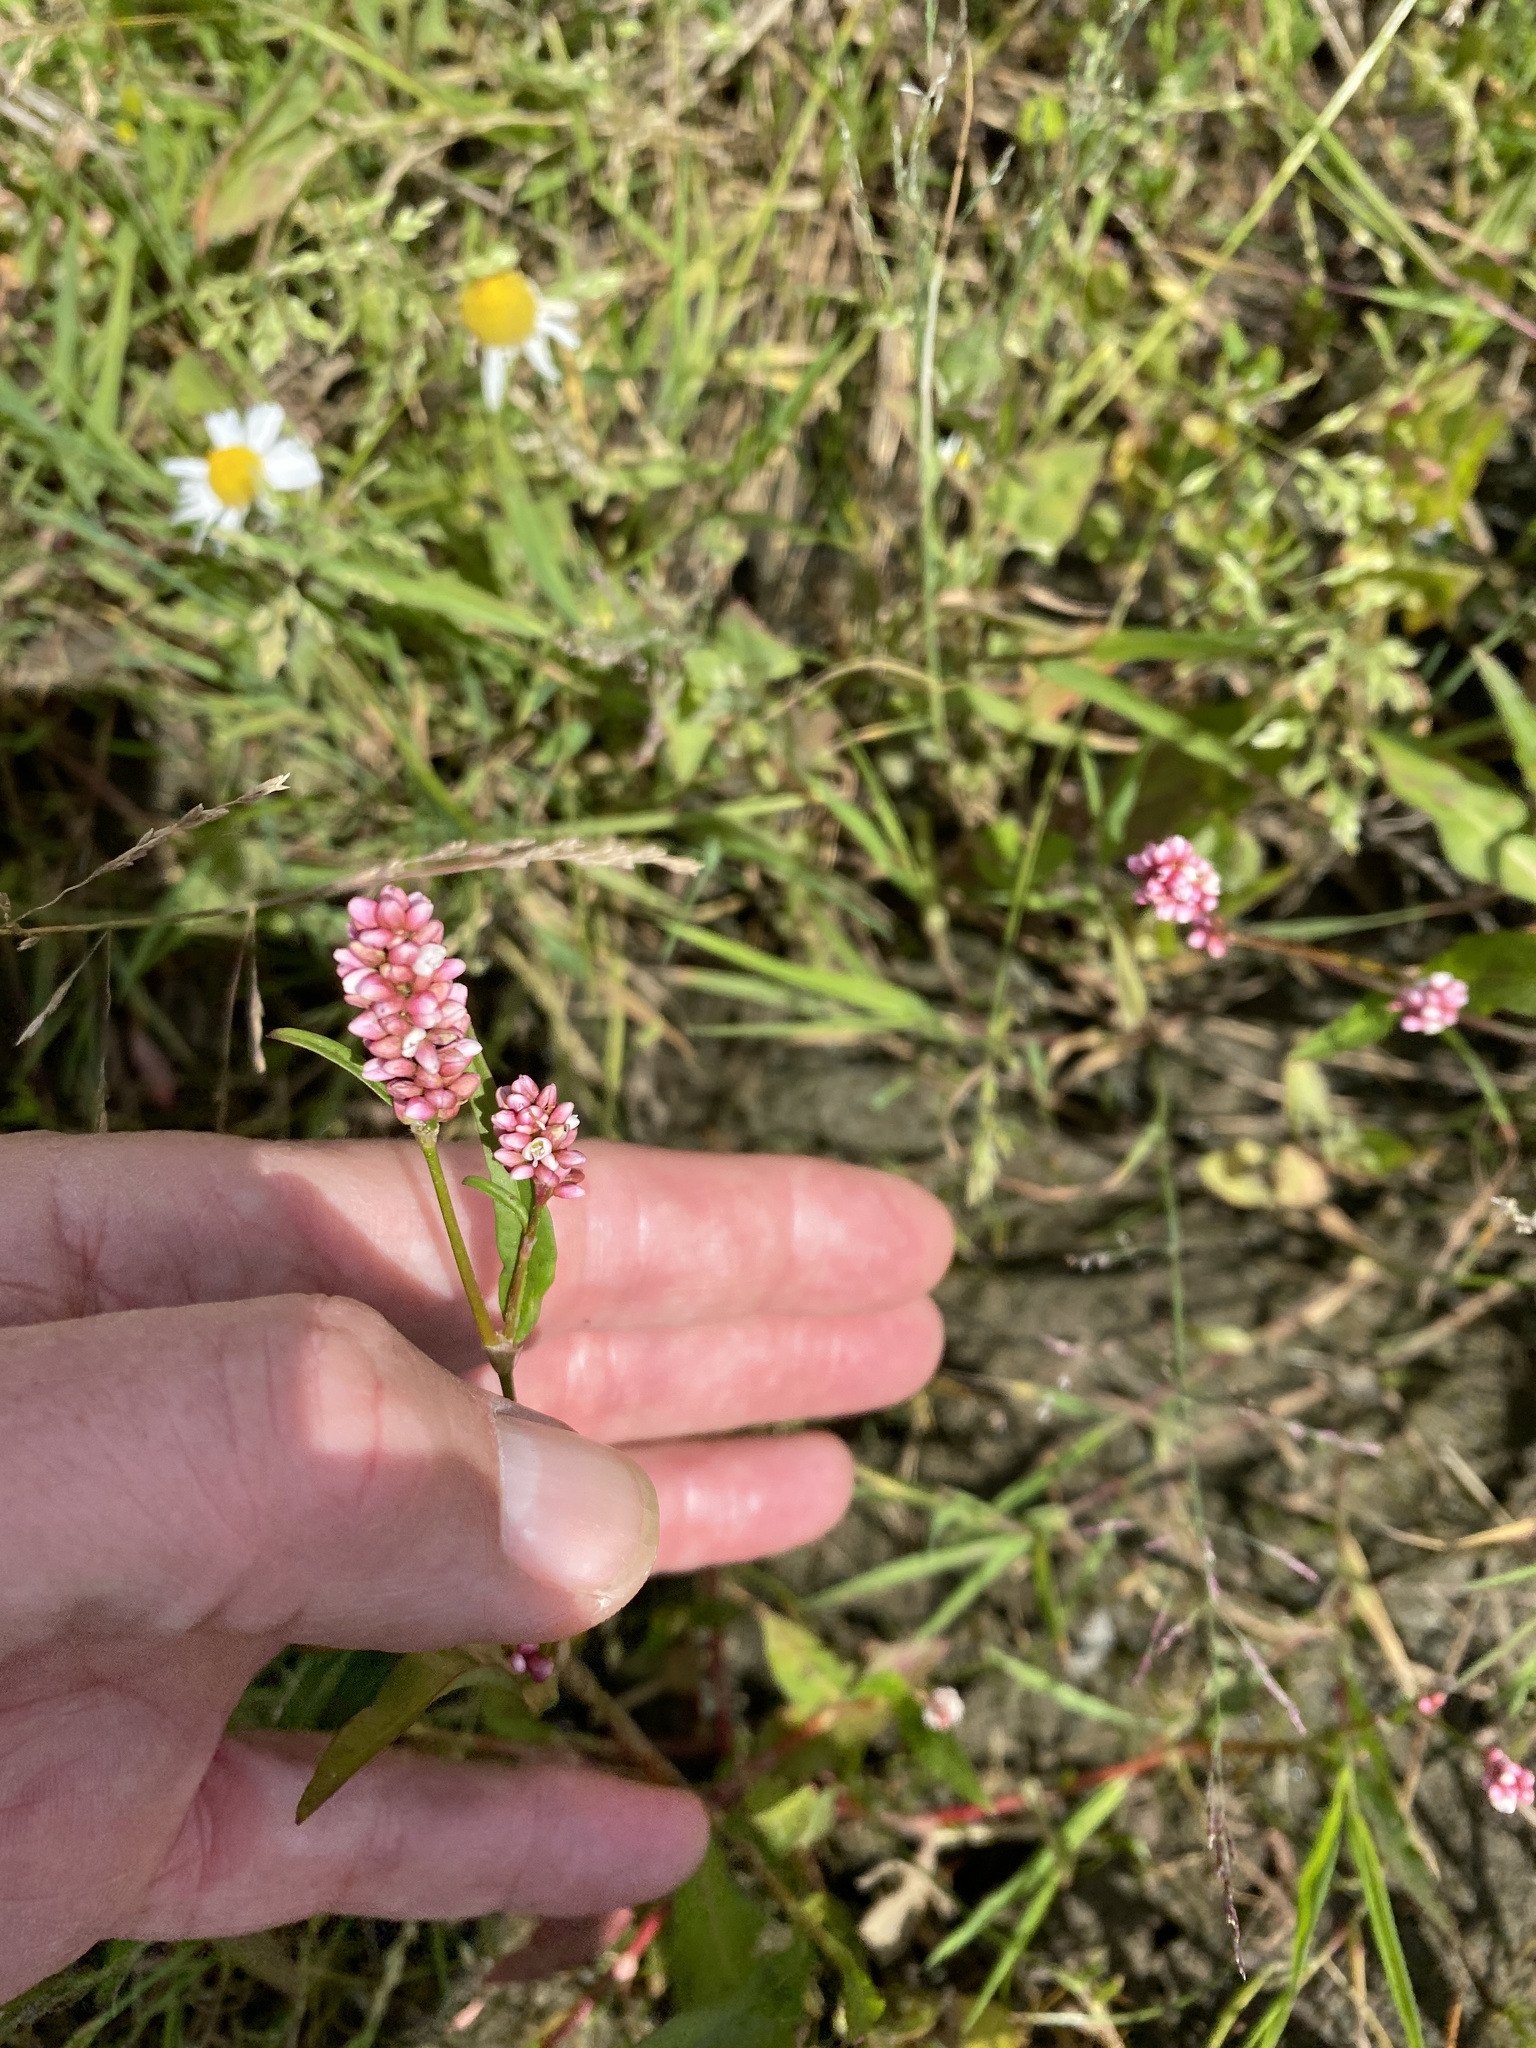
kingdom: Plantae
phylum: Tracheophyta
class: Magnoliopsida
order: Caryophyllales
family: Polygonaceae
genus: Persicaria
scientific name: Persicaria maculosa
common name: Redshank
